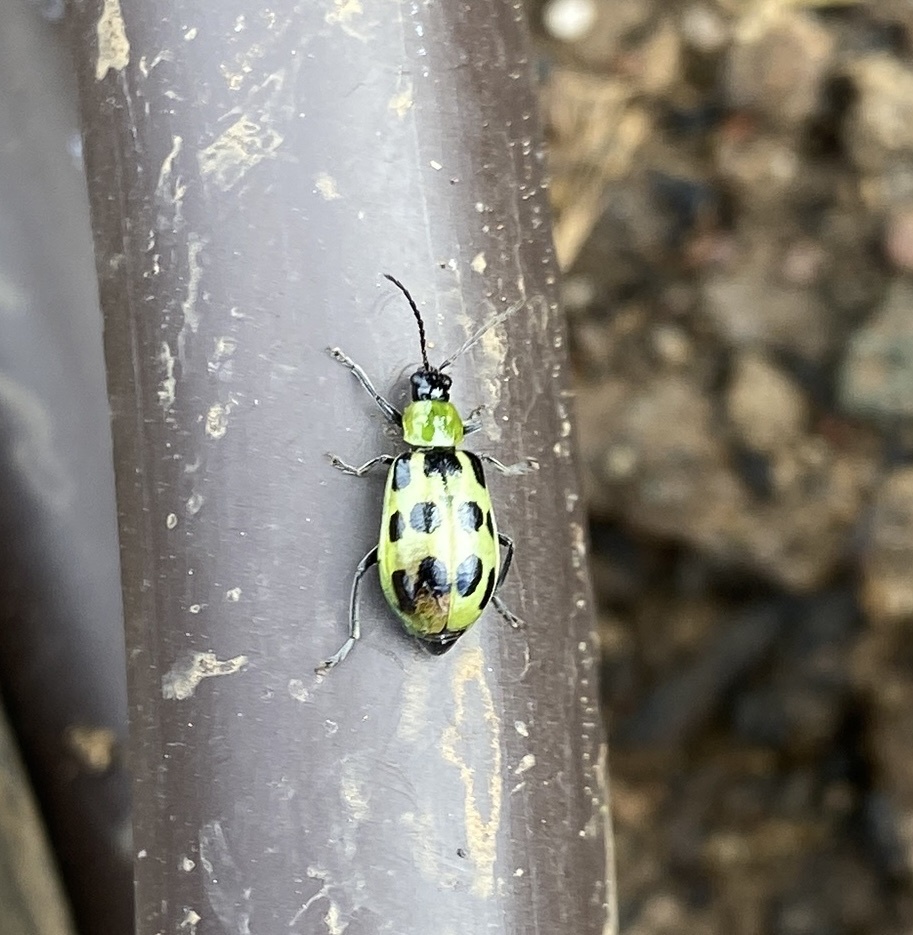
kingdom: Animalia
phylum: Arthropoda
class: Insecta
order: Coleoptera
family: Chrysomelidae
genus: Diabrotica
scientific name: Diabrotica undecimpunctata
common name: Spotted cucumber beetle
